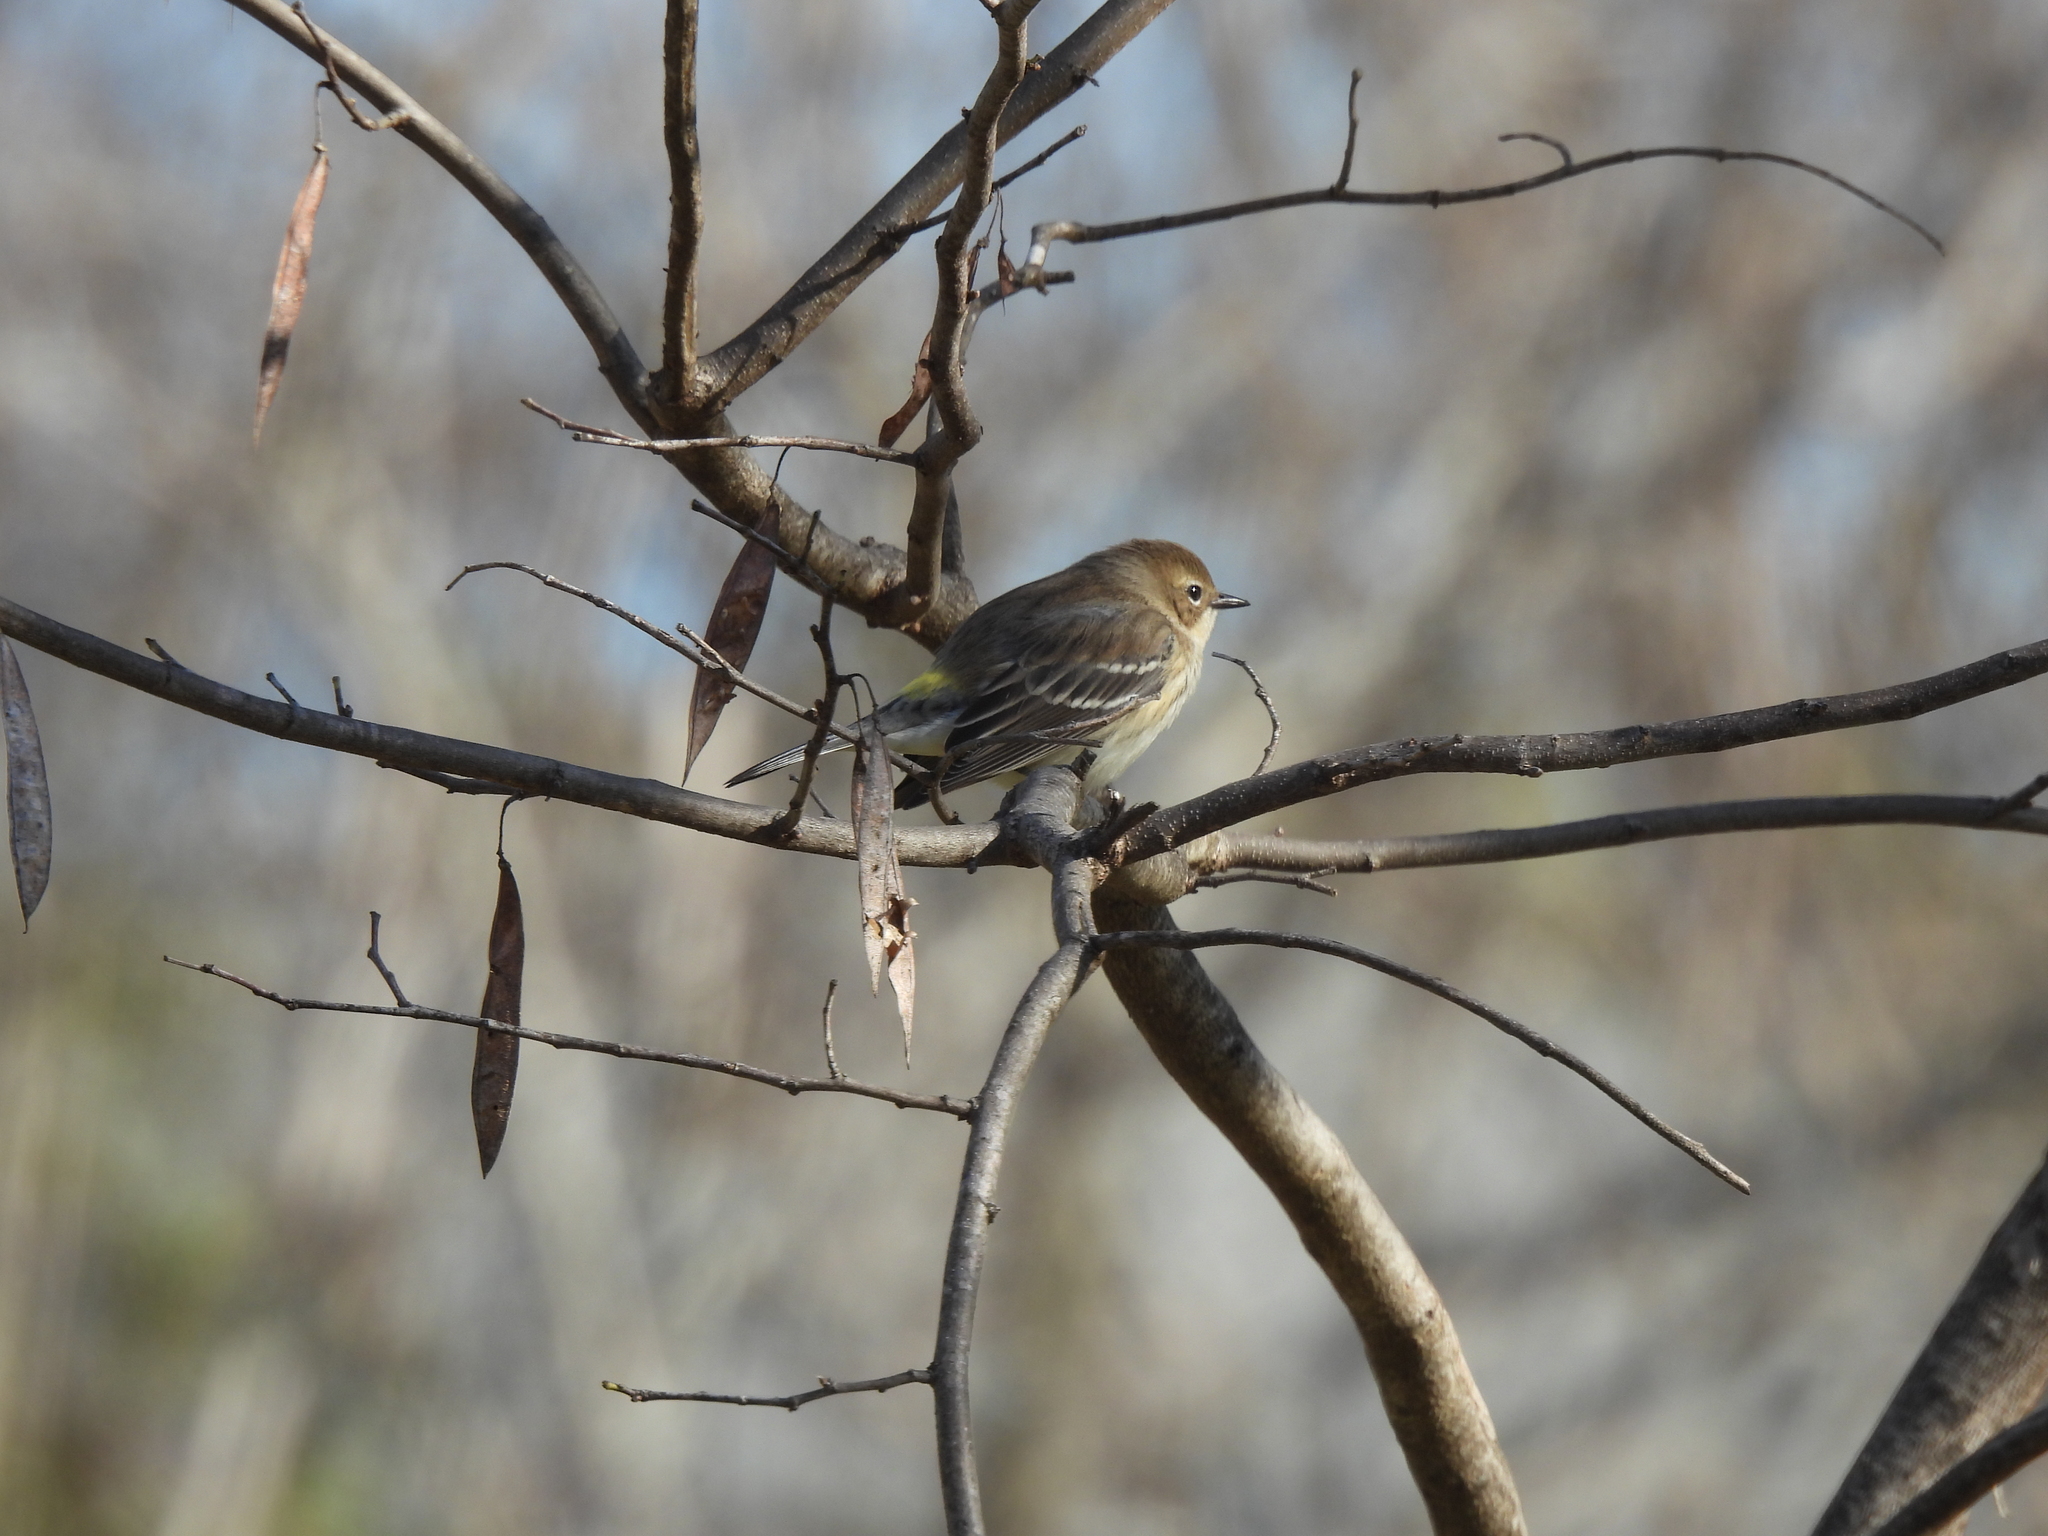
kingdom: Animalia
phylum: Chordata
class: Aves
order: Passeriformes
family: Parulidae
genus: Setophaga
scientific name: Setophaga coronata
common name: Myrtle warbler
